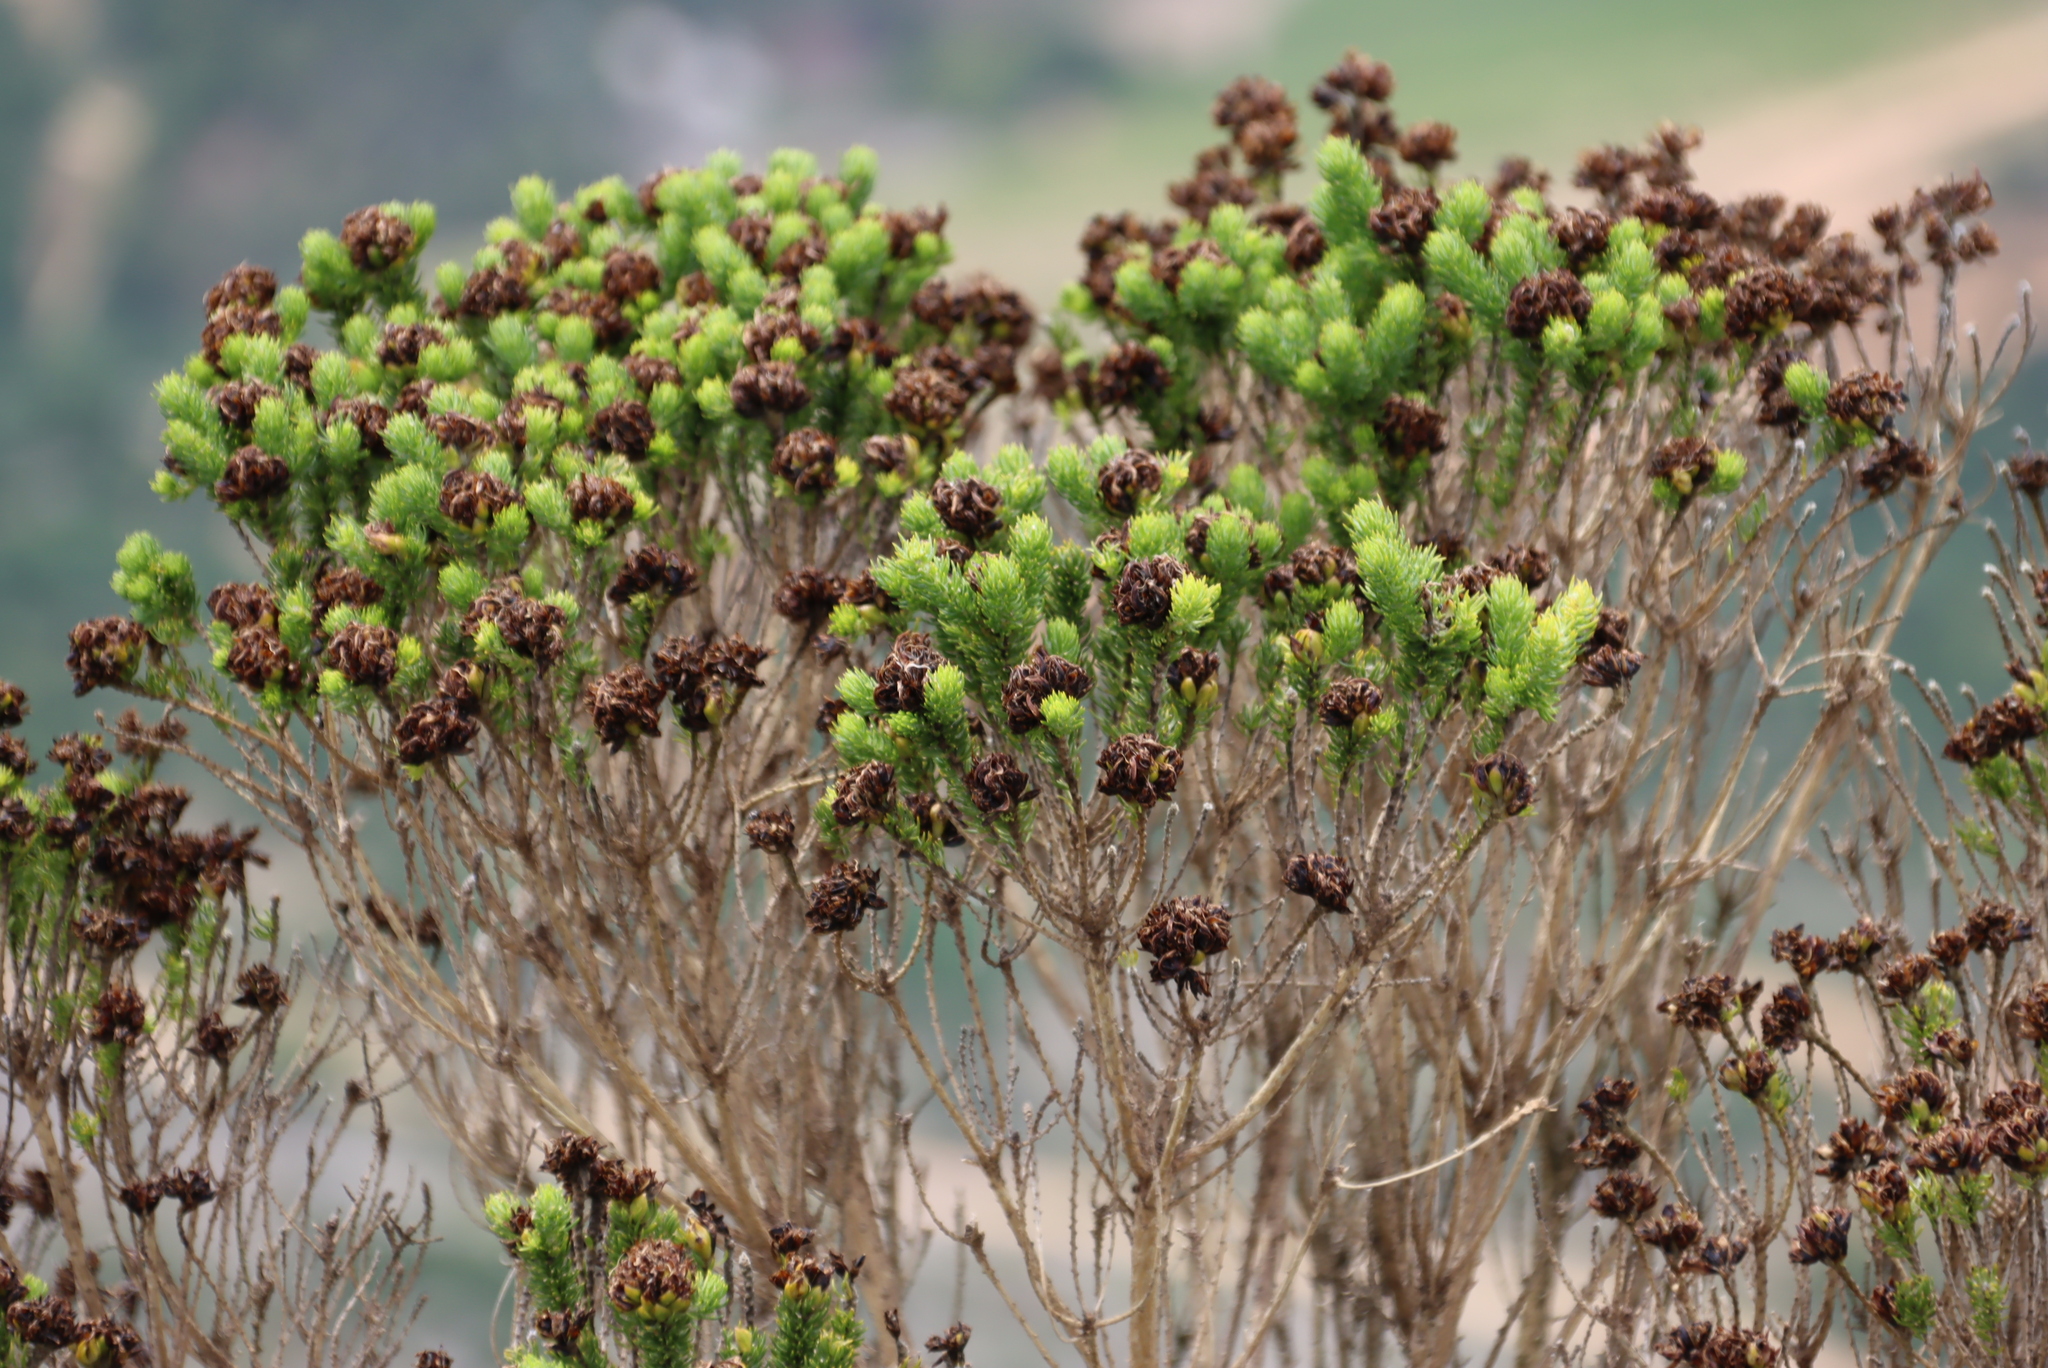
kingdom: Plantae
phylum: Tracheophyta
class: Magnoliopsida
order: Fabales
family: Fabaceae
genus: Aspalathus
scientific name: Aspalathus capitata
